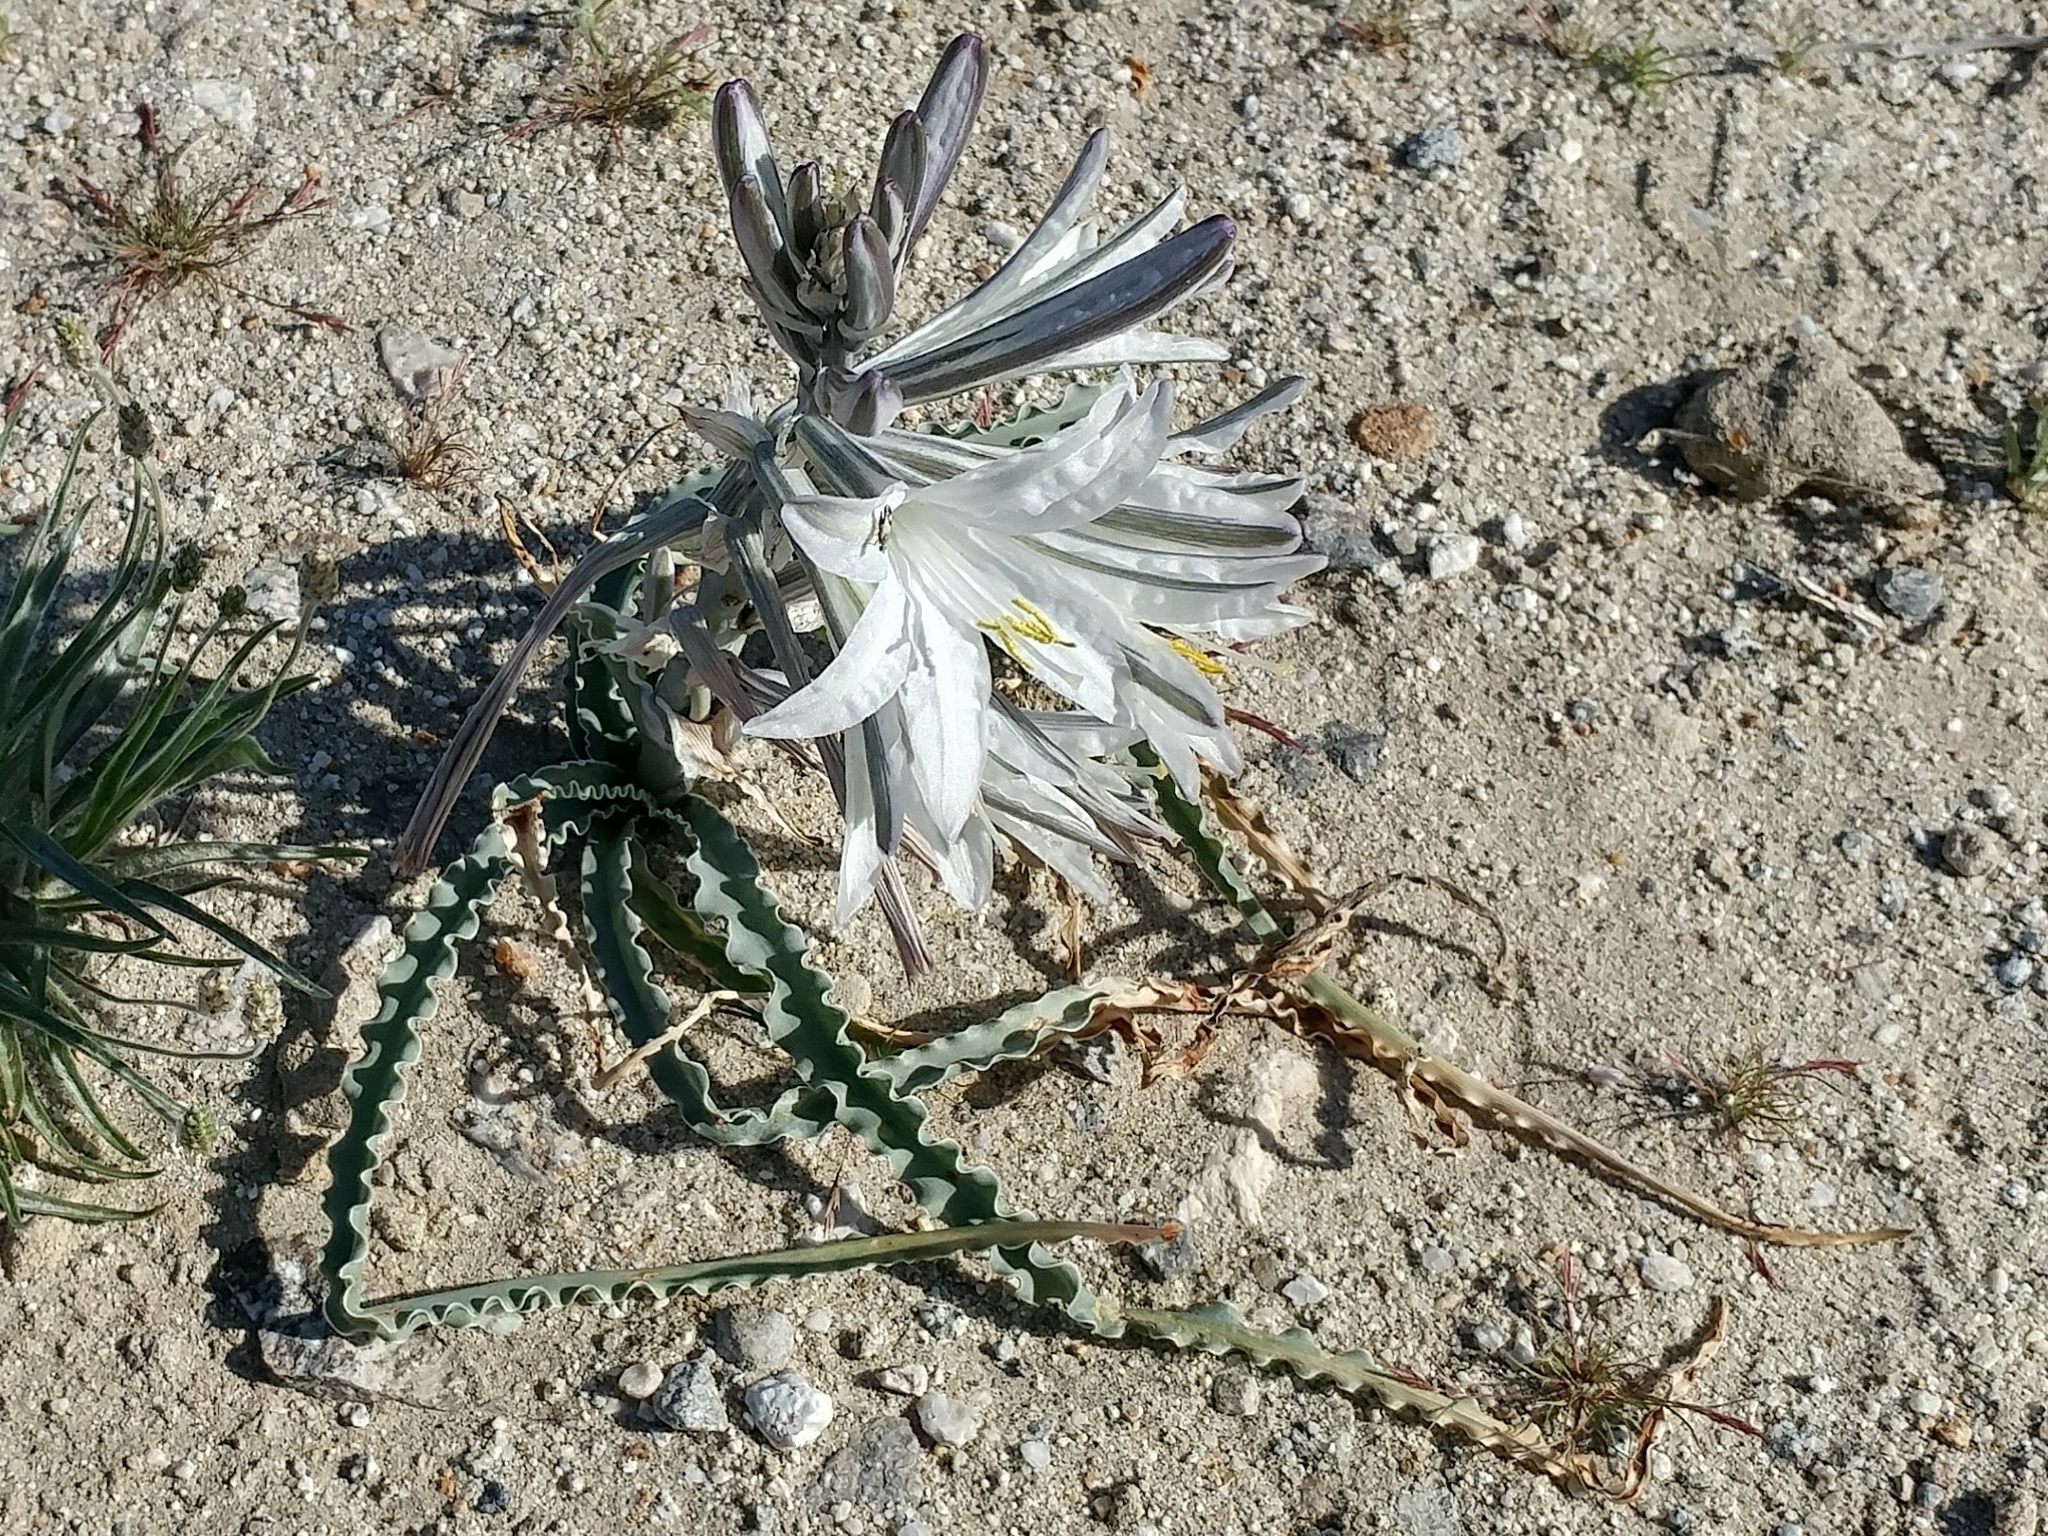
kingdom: Plantae
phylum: Tracheophyta
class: Liliopsida
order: Asparagales
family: Asparagaceae
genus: Hesperocallis
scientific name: Hesperocallis undulata
